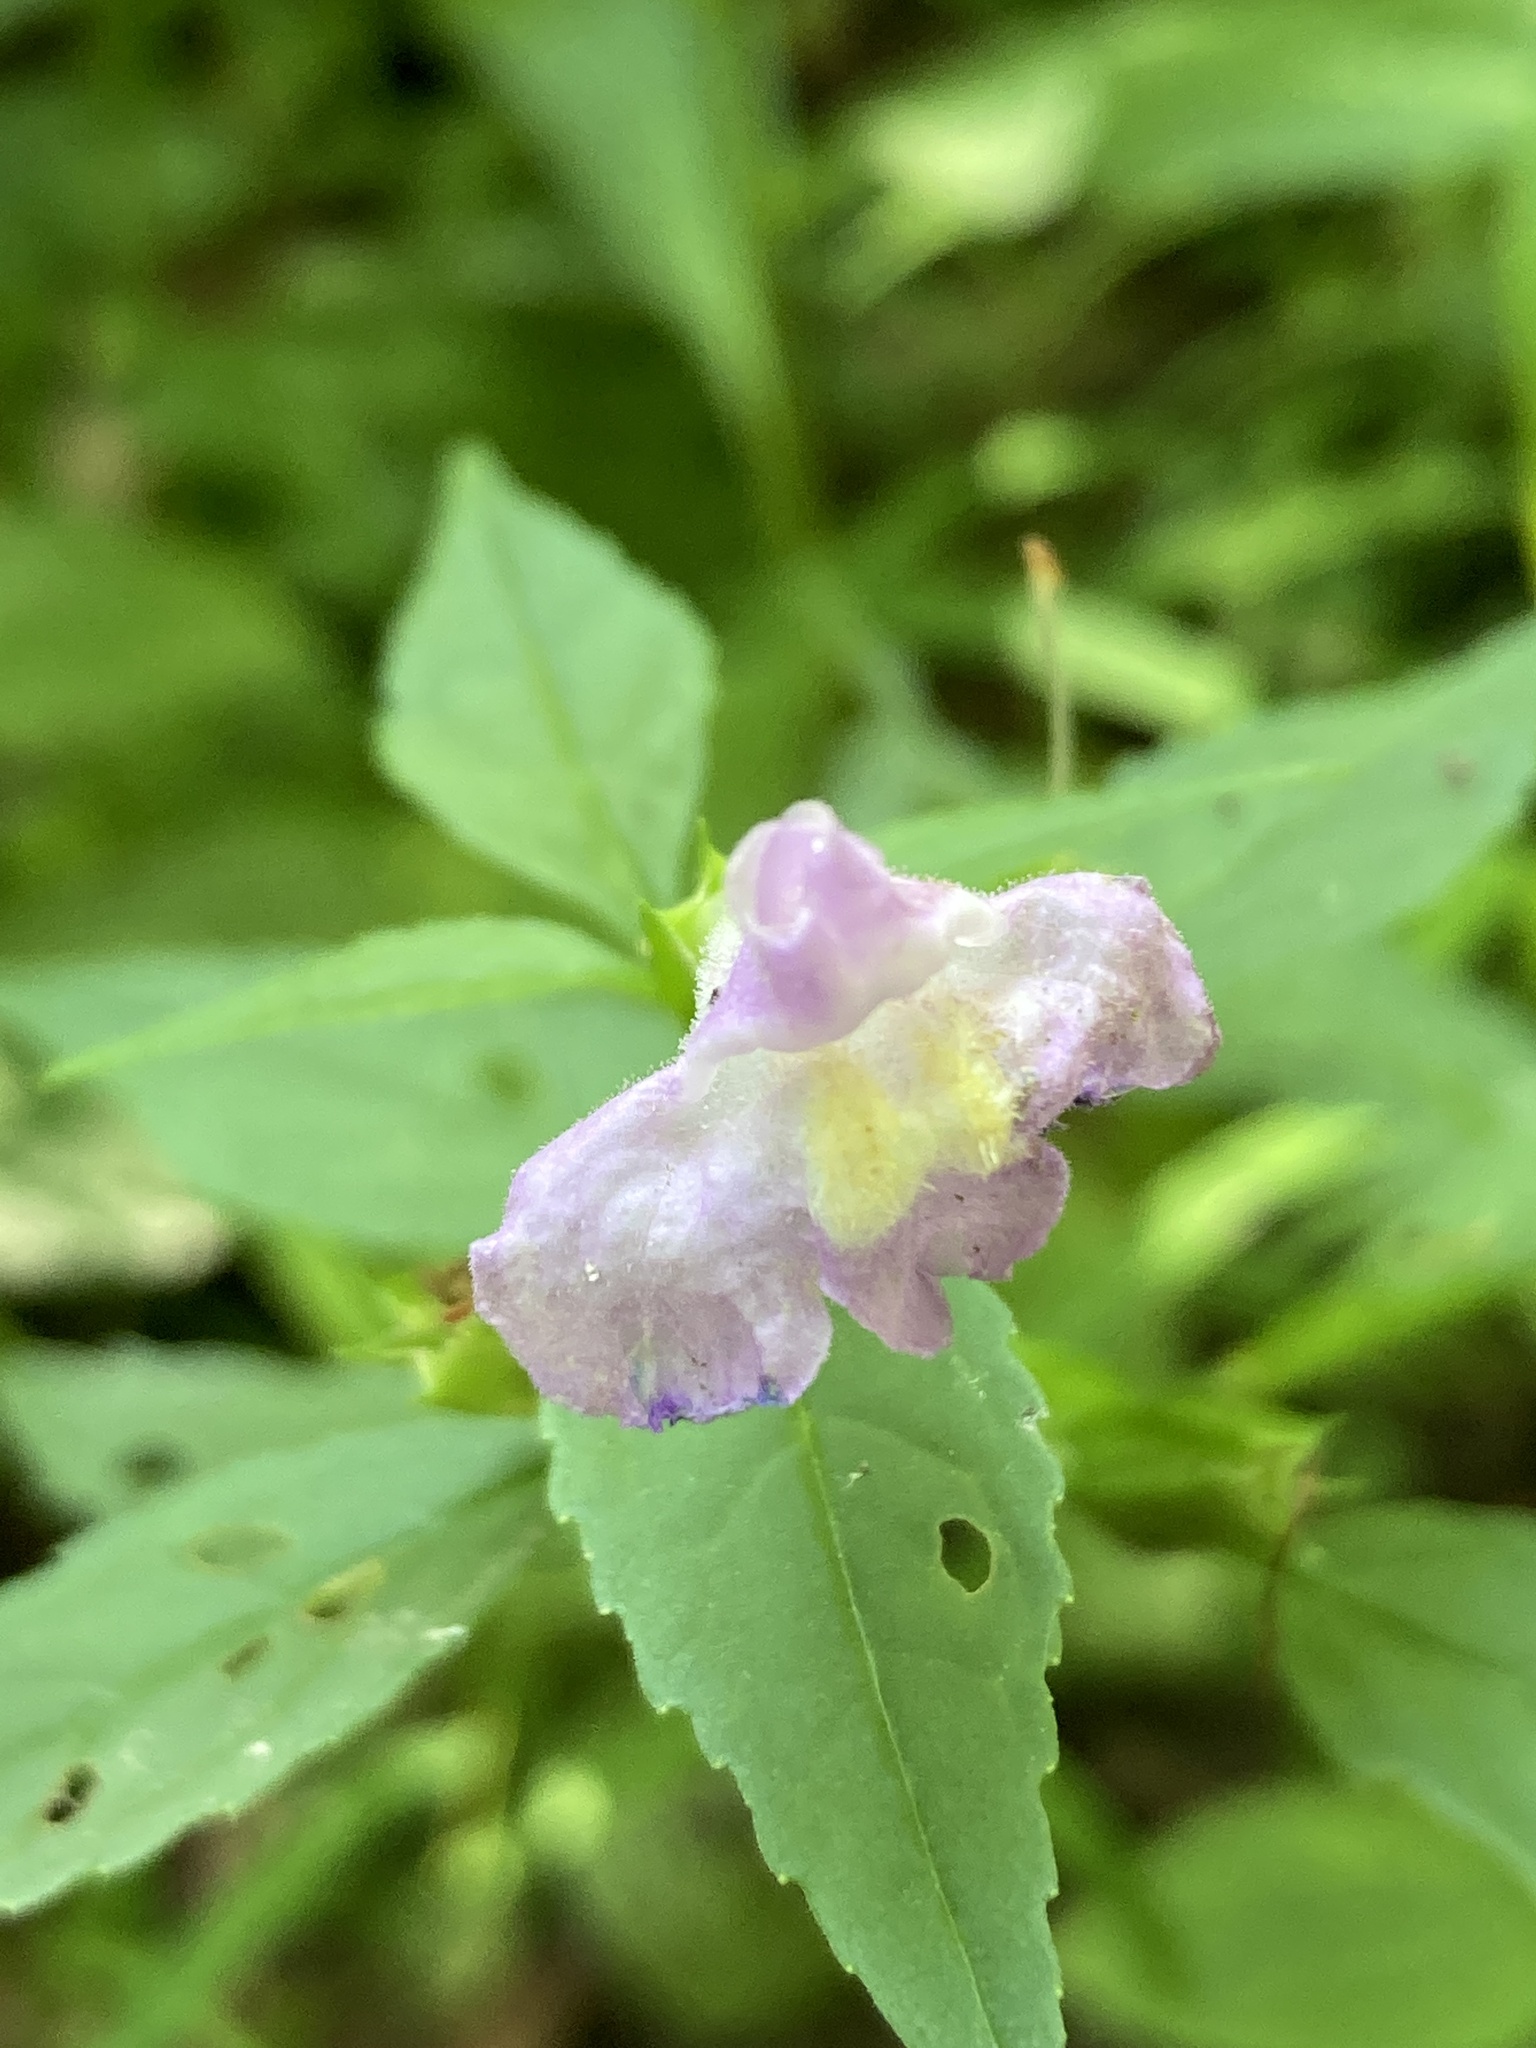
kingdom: Plantae
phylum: Tracheophyta
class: Magnoliopsida
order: Lamiales
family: Phrymaceae
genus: Mimulus
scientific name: Mimulus alatus
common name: Sharp-wing monkey-flower
